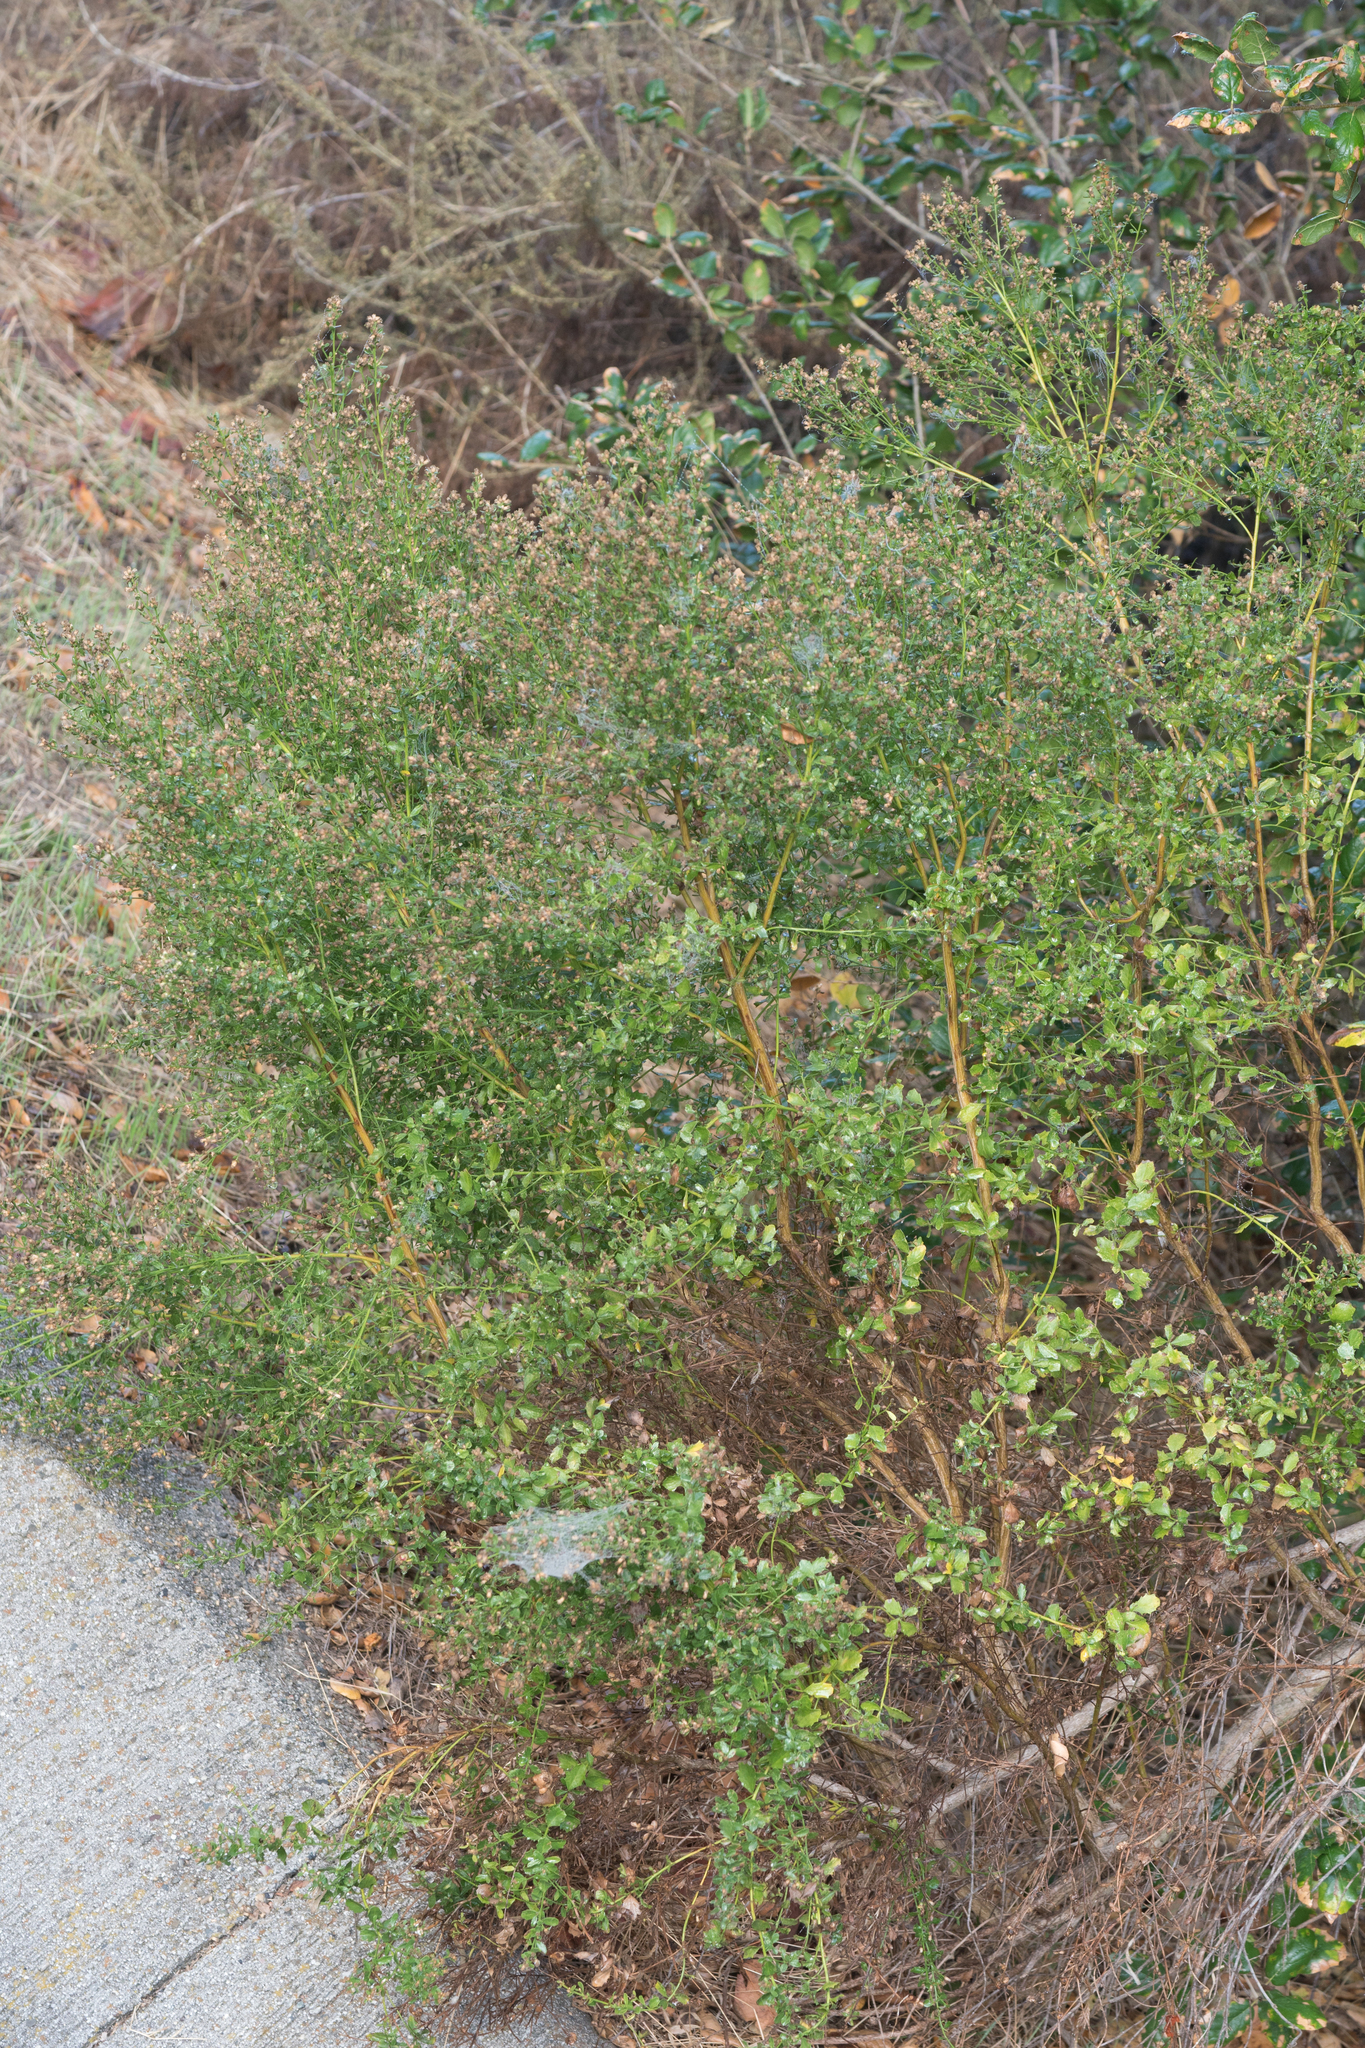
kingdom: Plantae
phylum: Tracheophyta
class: Magnoliopsida
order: Asterales
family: Asteraceae
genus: Baccharis
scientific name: Baccharis pilularis
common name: Coyotebrush
